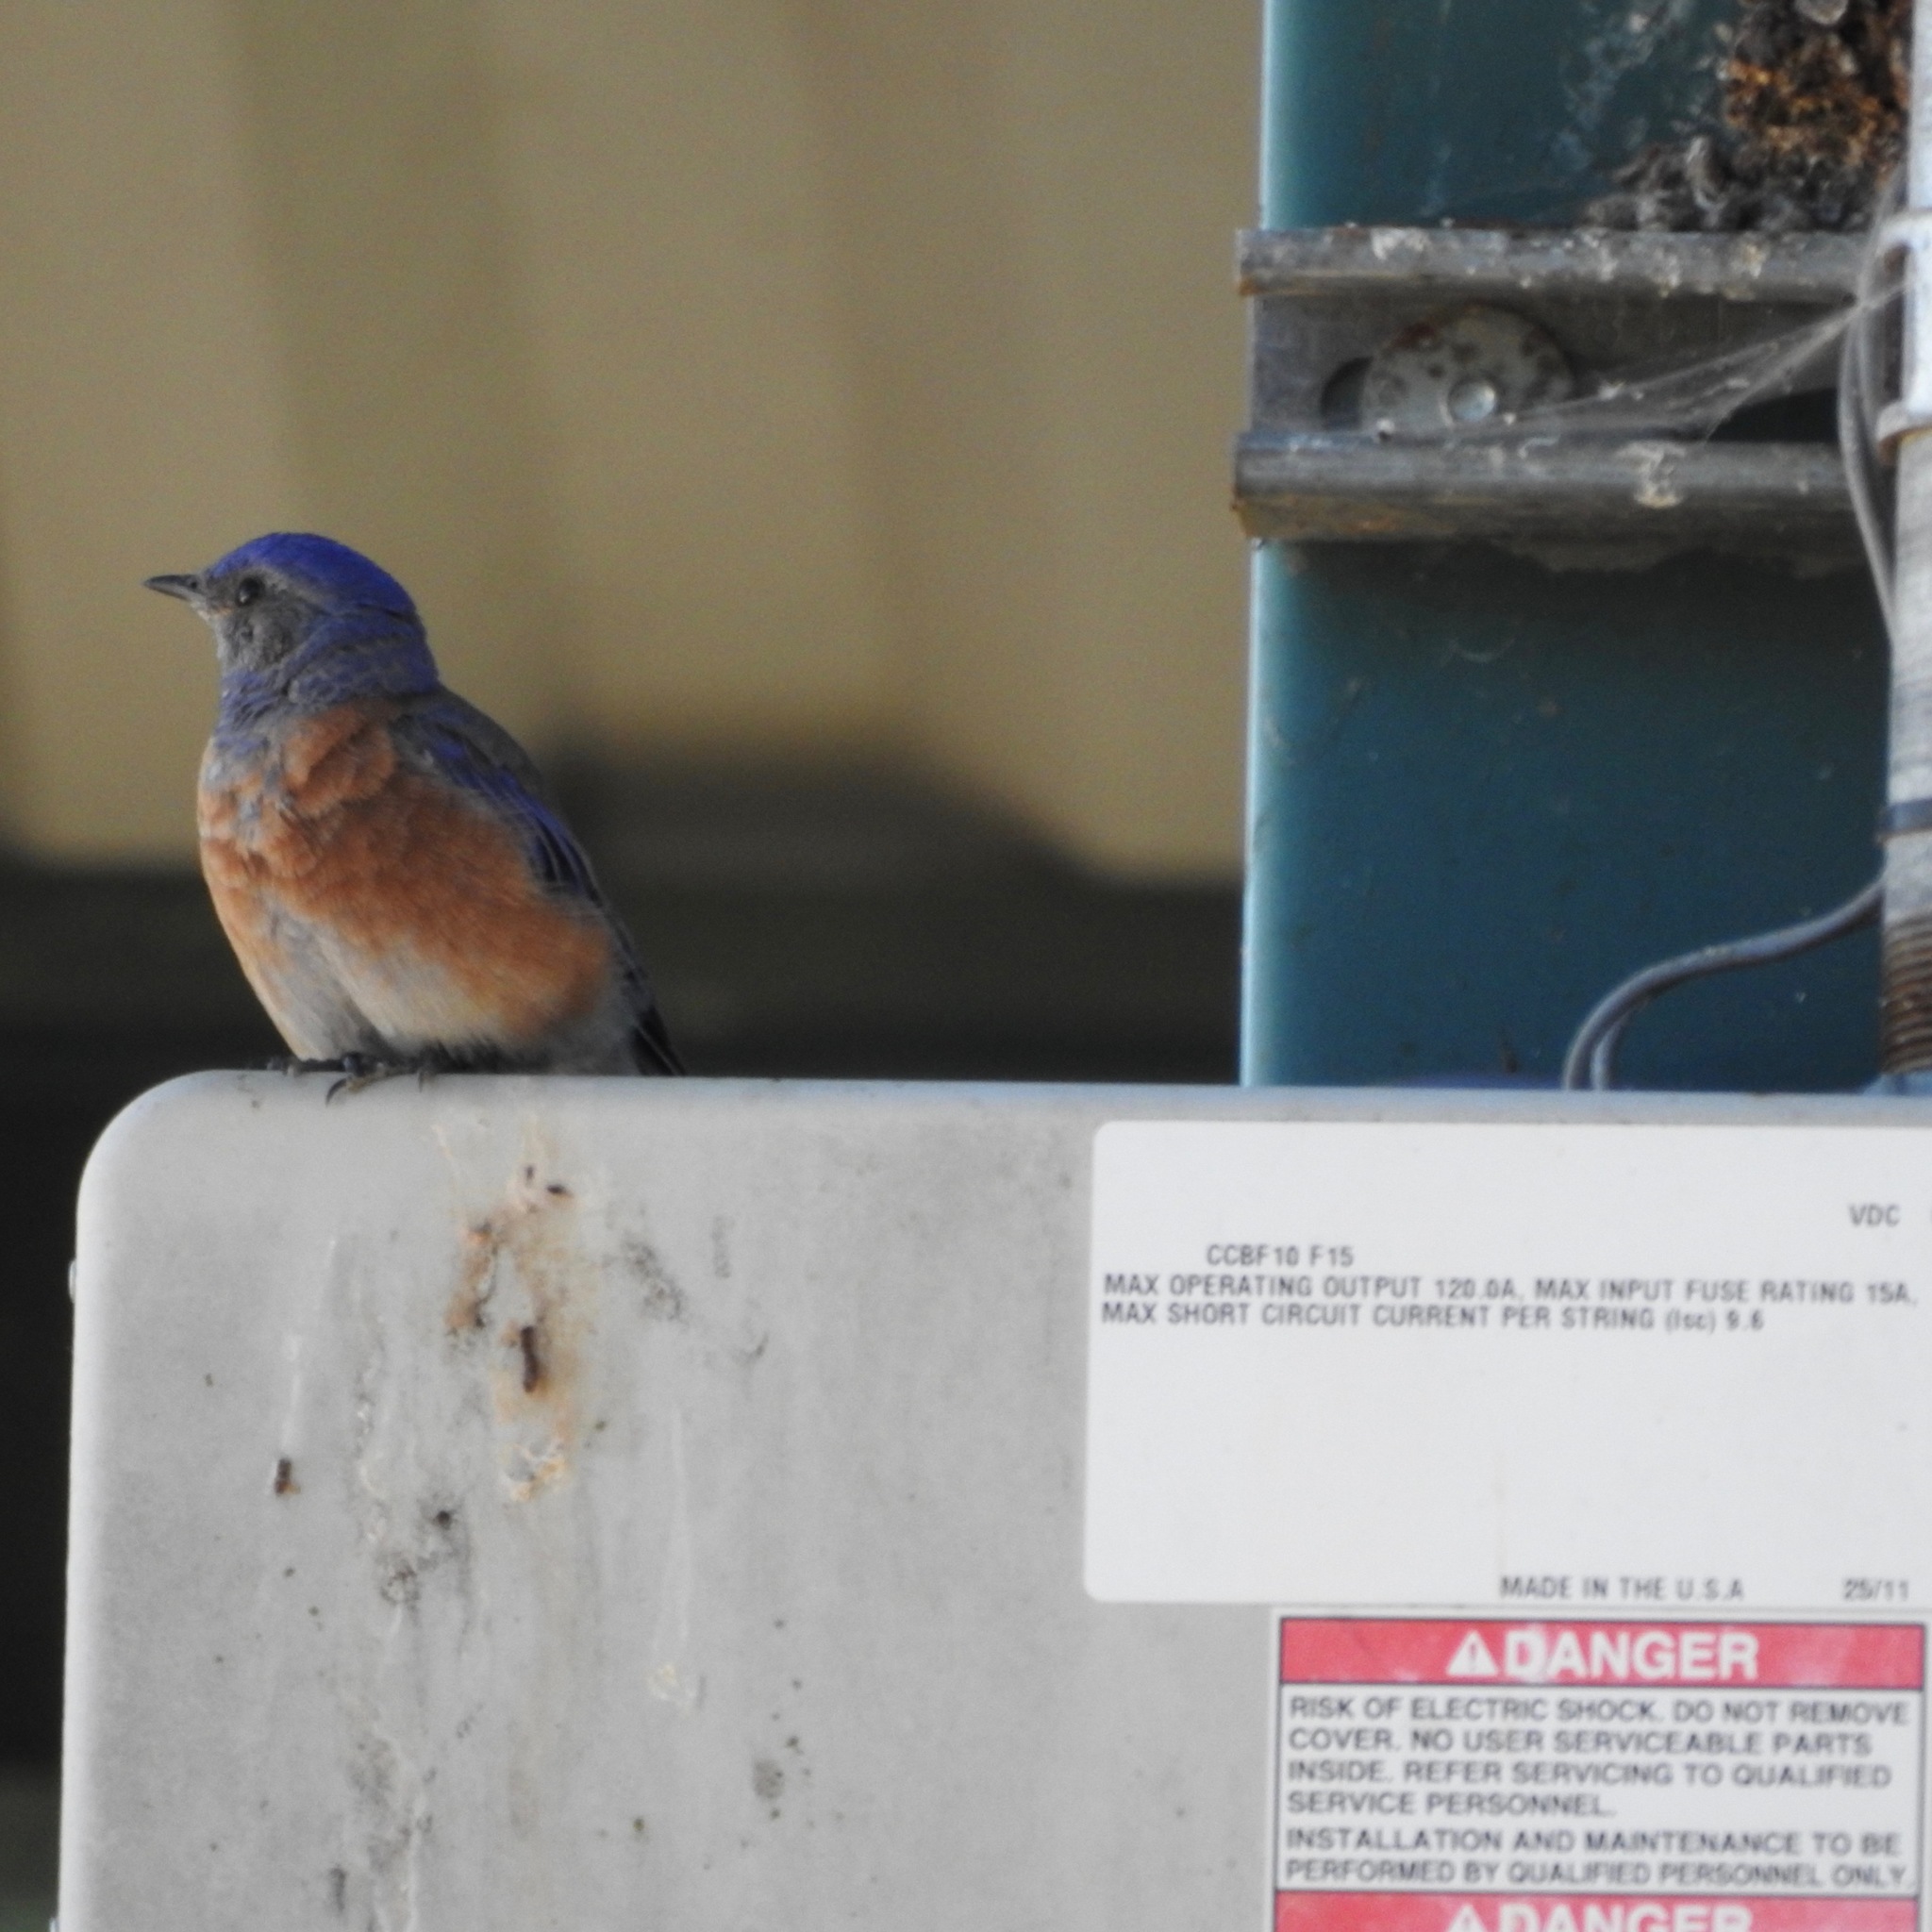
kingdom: Animalia
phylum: Chordata
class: Aves
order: Passeriformes
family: Turdidae
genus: Sialia
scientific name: Sialia mexicana
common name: Western bluebird
